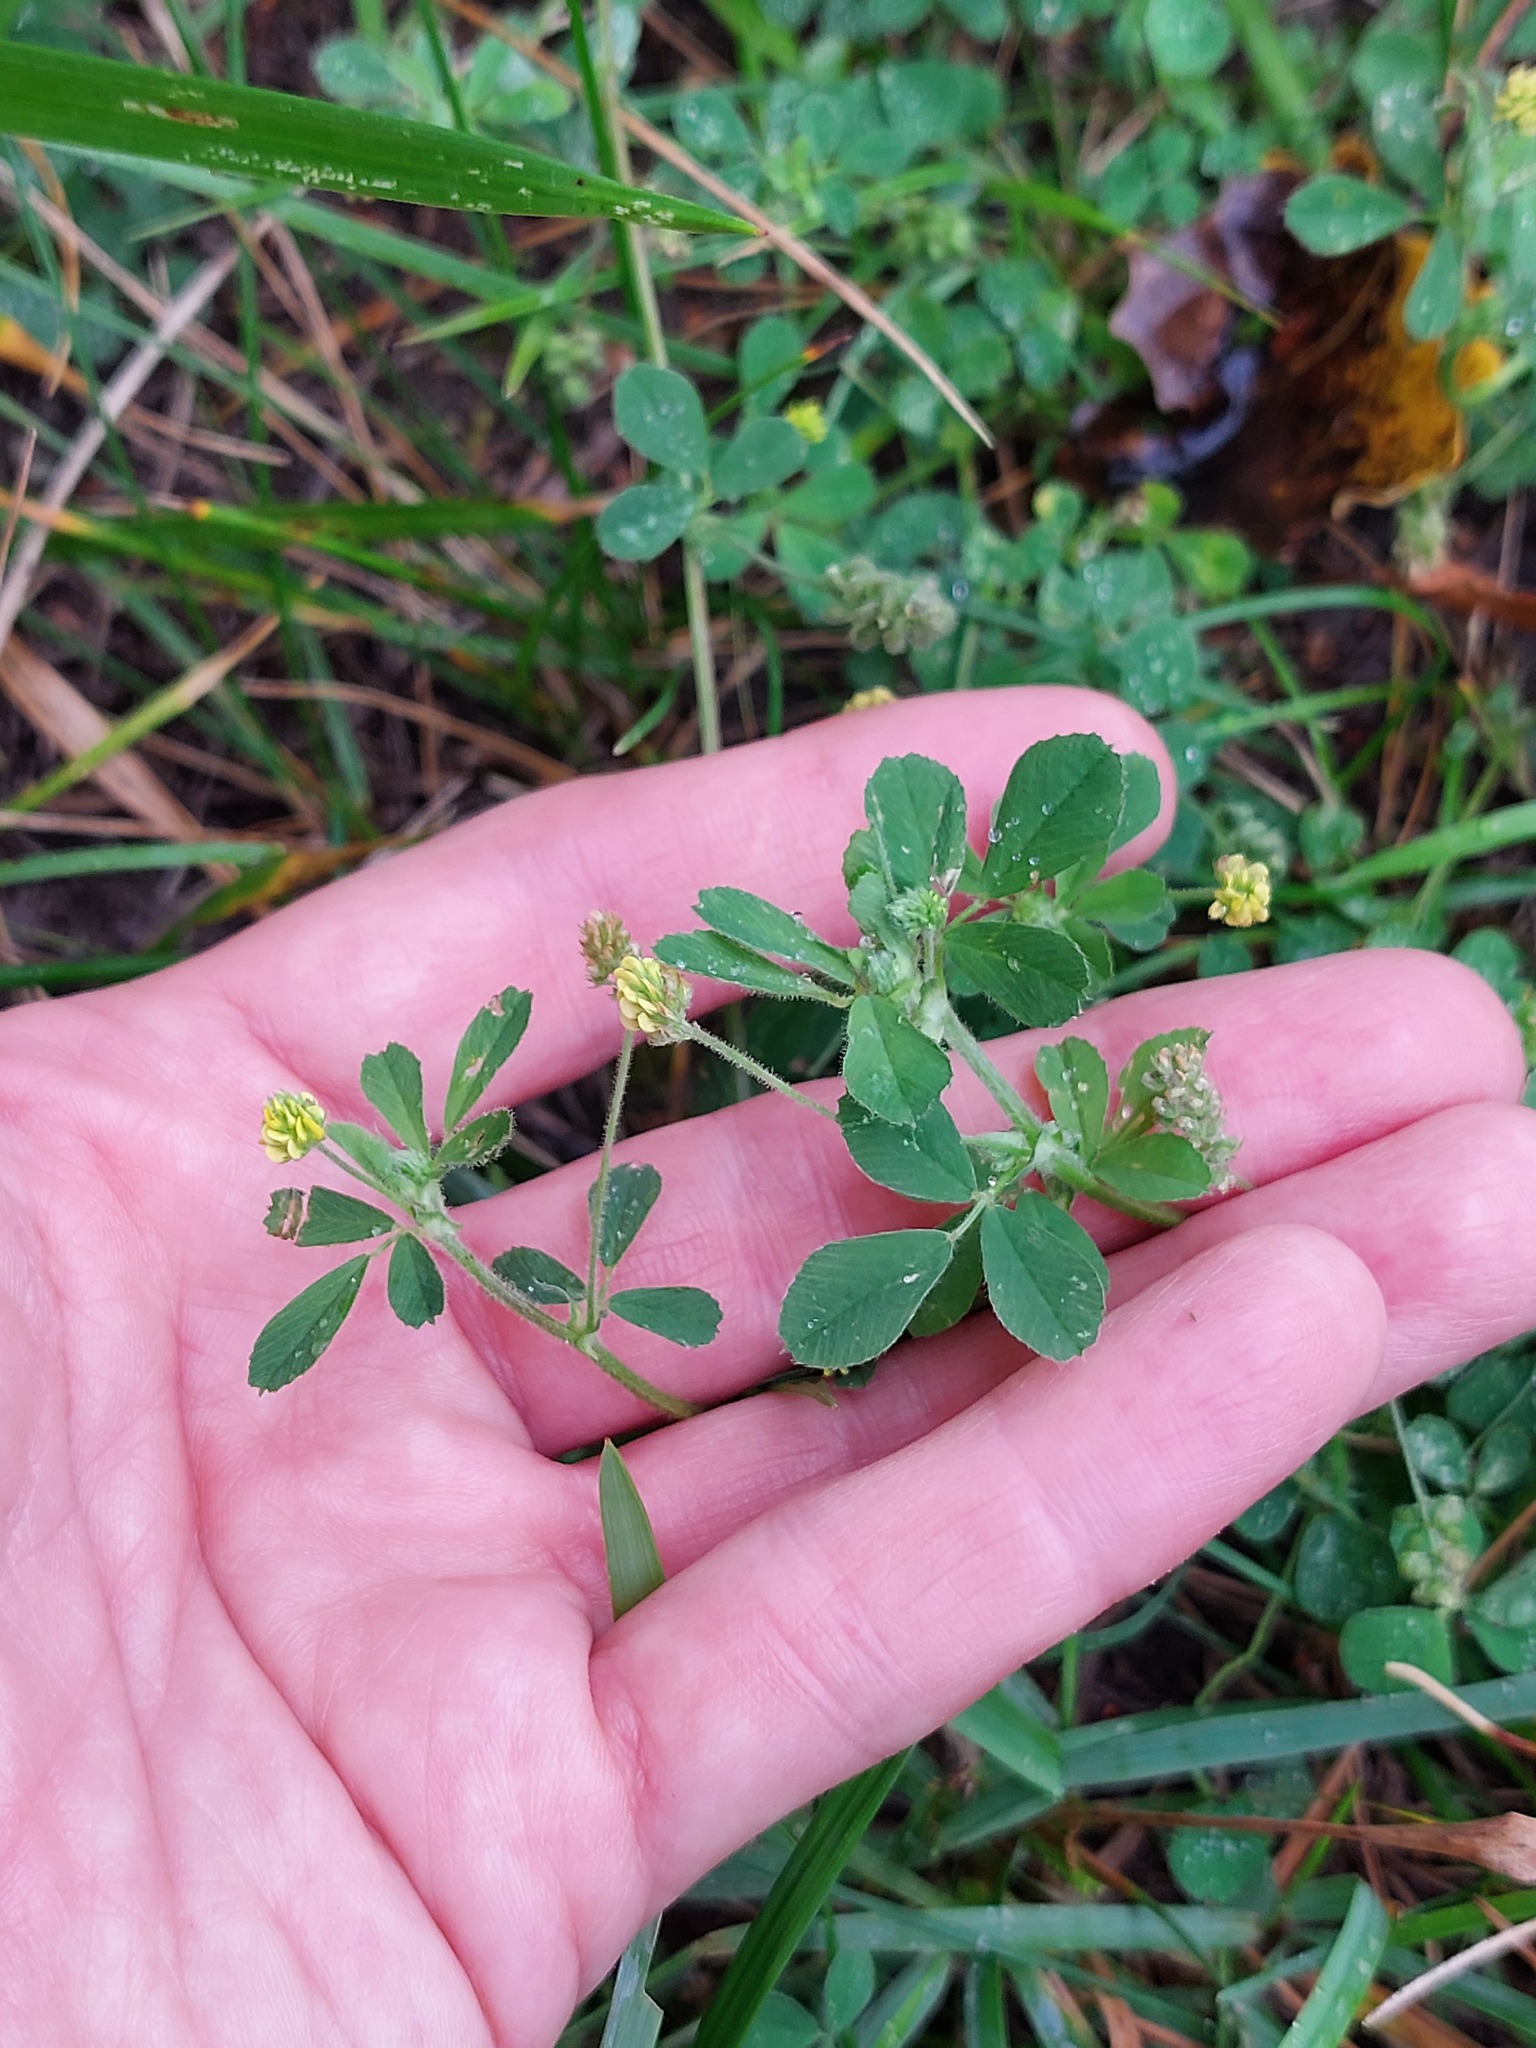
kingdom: Plantae
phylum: Tracheophyta
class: Magnoliopsida
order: Fabales
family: Fabaceae
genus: Medicago
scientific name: Medicago lupulina
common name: Black medick
